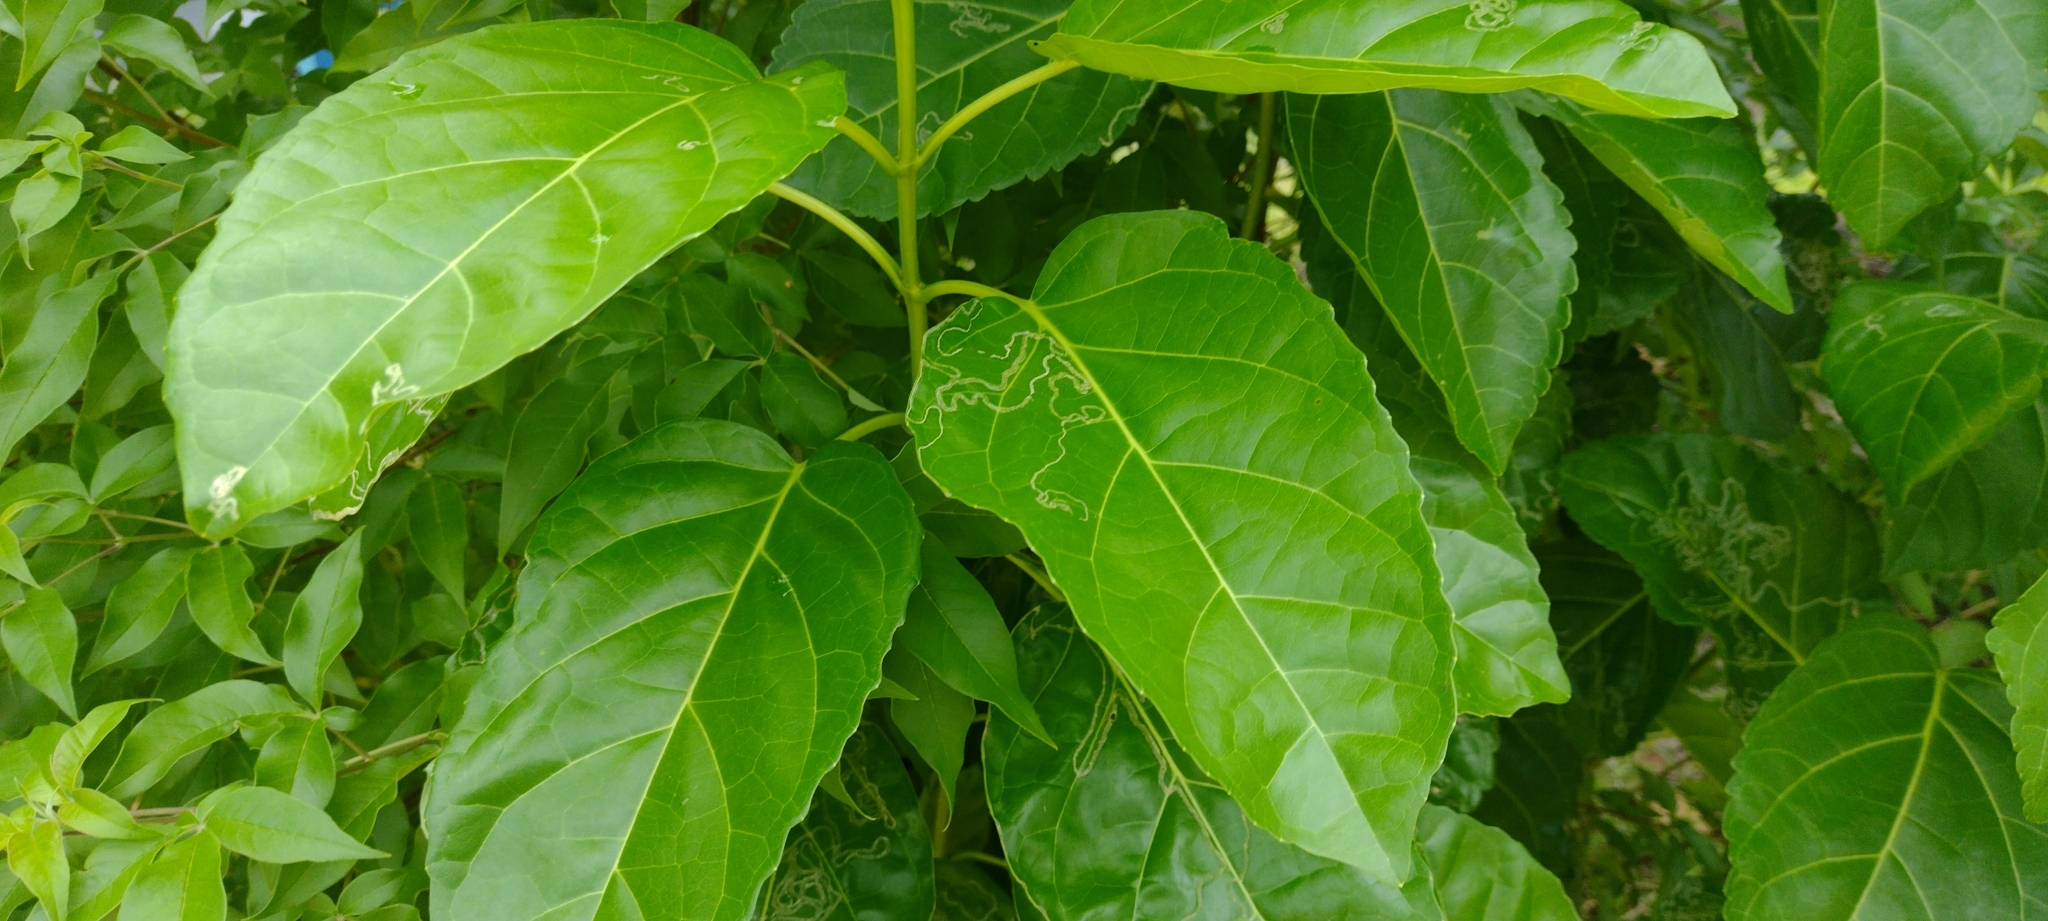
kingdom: Plantae
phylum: Tracheophyta
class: Magnoliopsida
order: Lamiales
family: Lamiaceae
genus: Premna
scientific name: Premna serratifolia
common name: Bastard guelder
